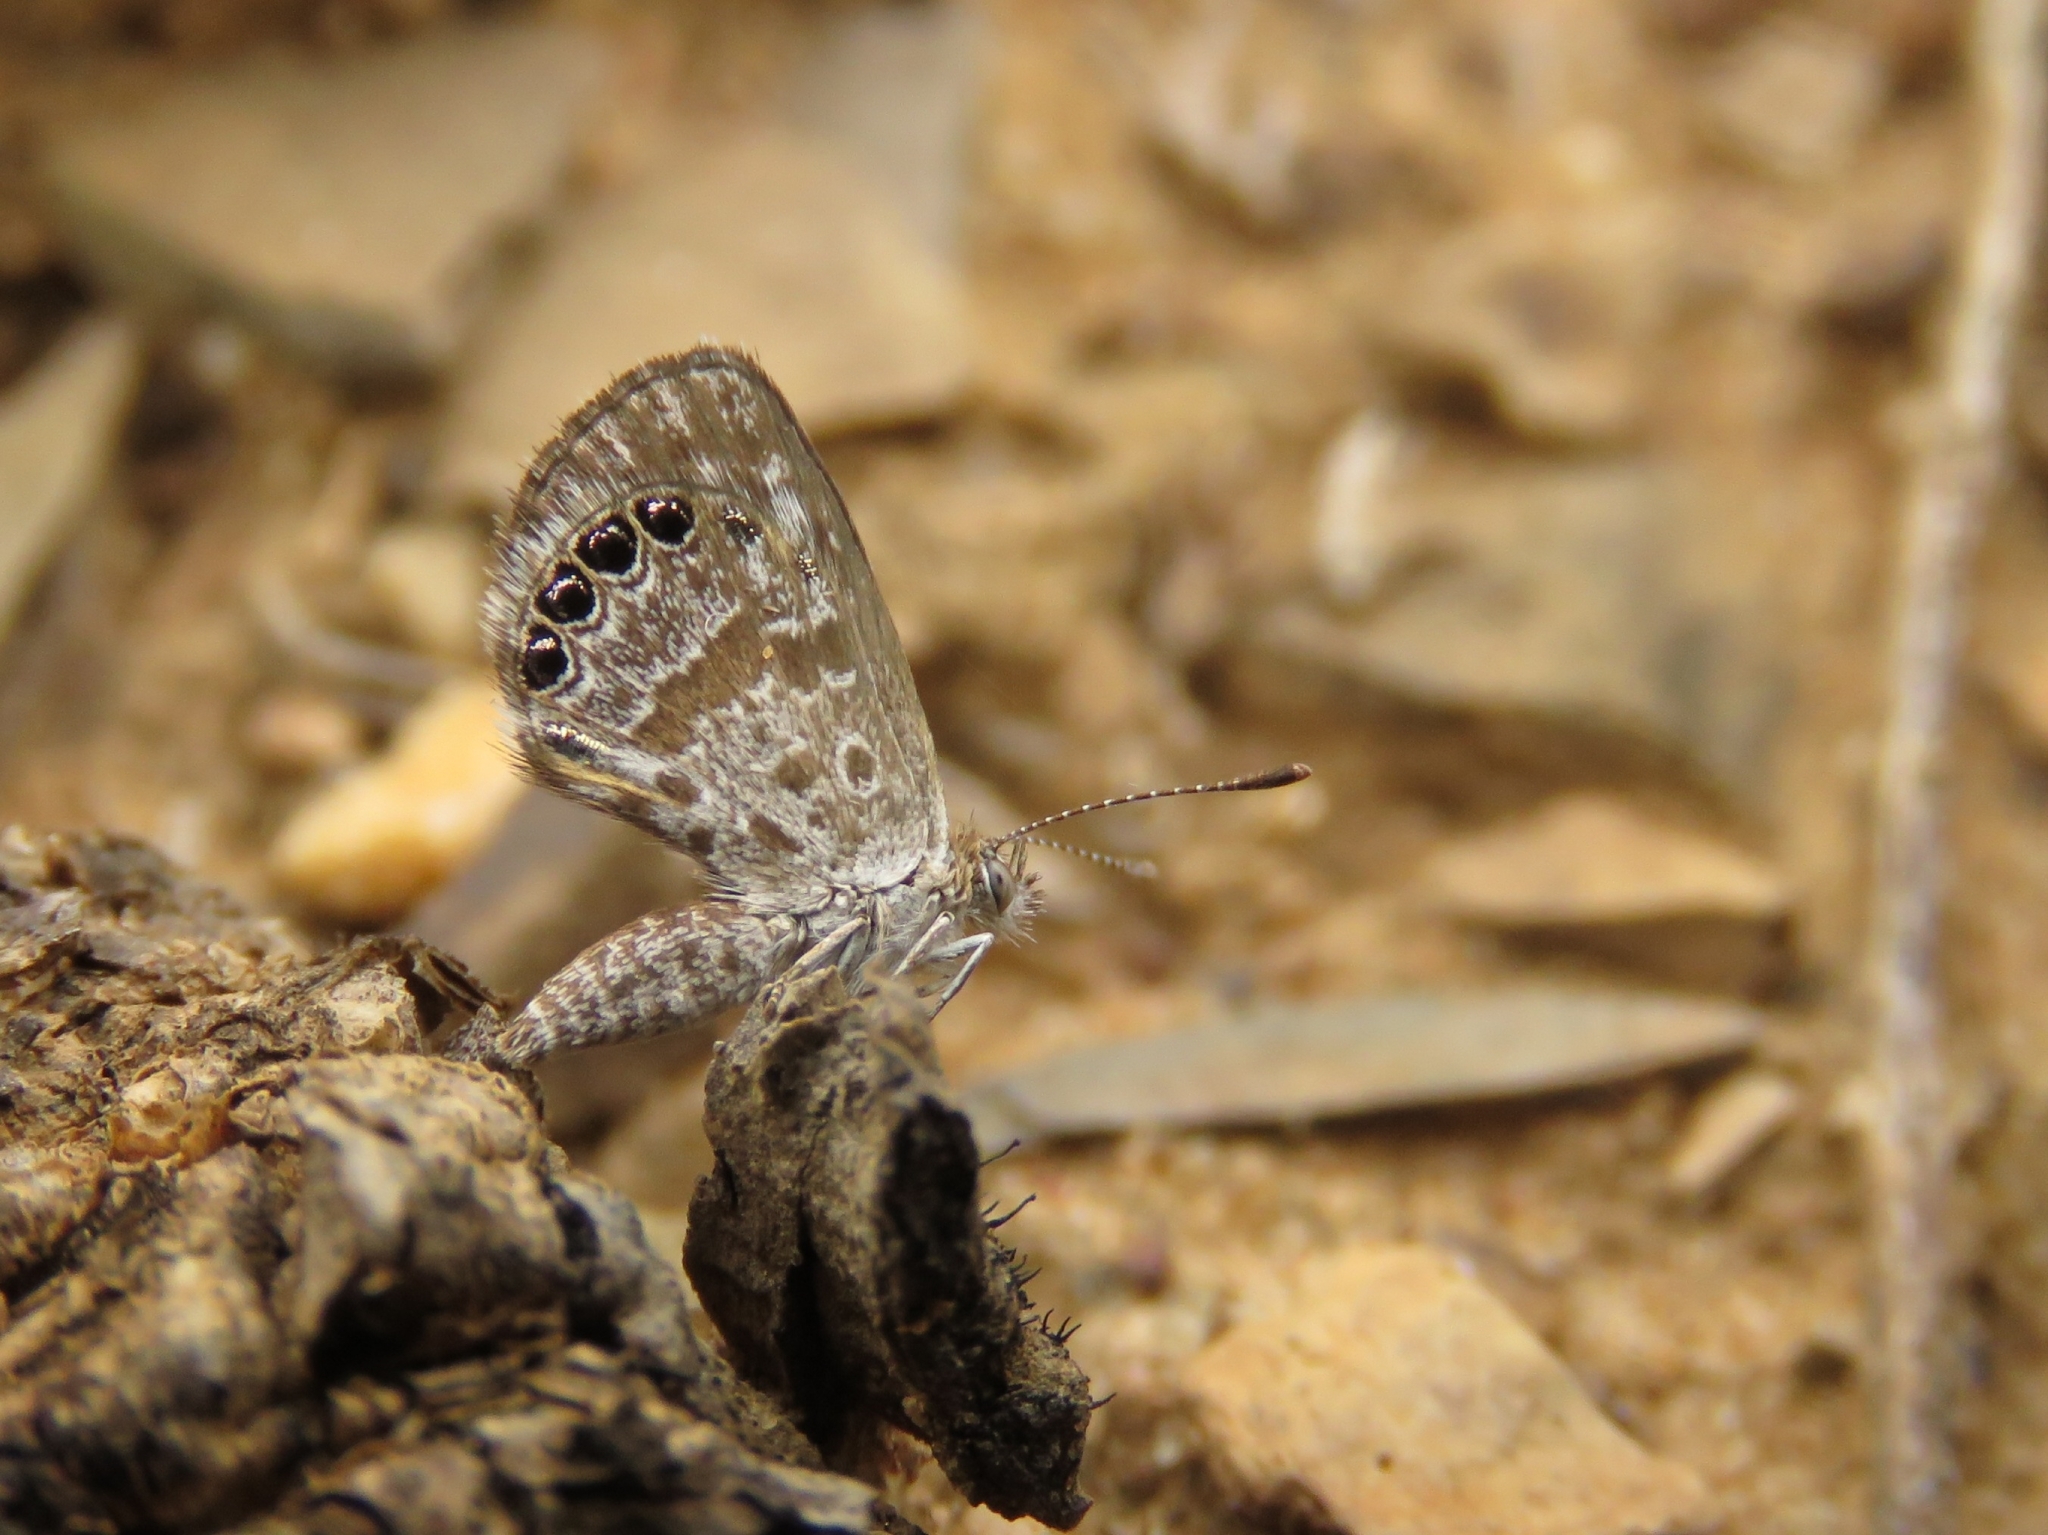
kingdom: Animalia
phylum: Arthropoda
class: Insecta
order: Lepidoptera
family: Lycaenidae
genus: Oraidium
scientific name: Oraidium barberae
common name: Dwarf blue
